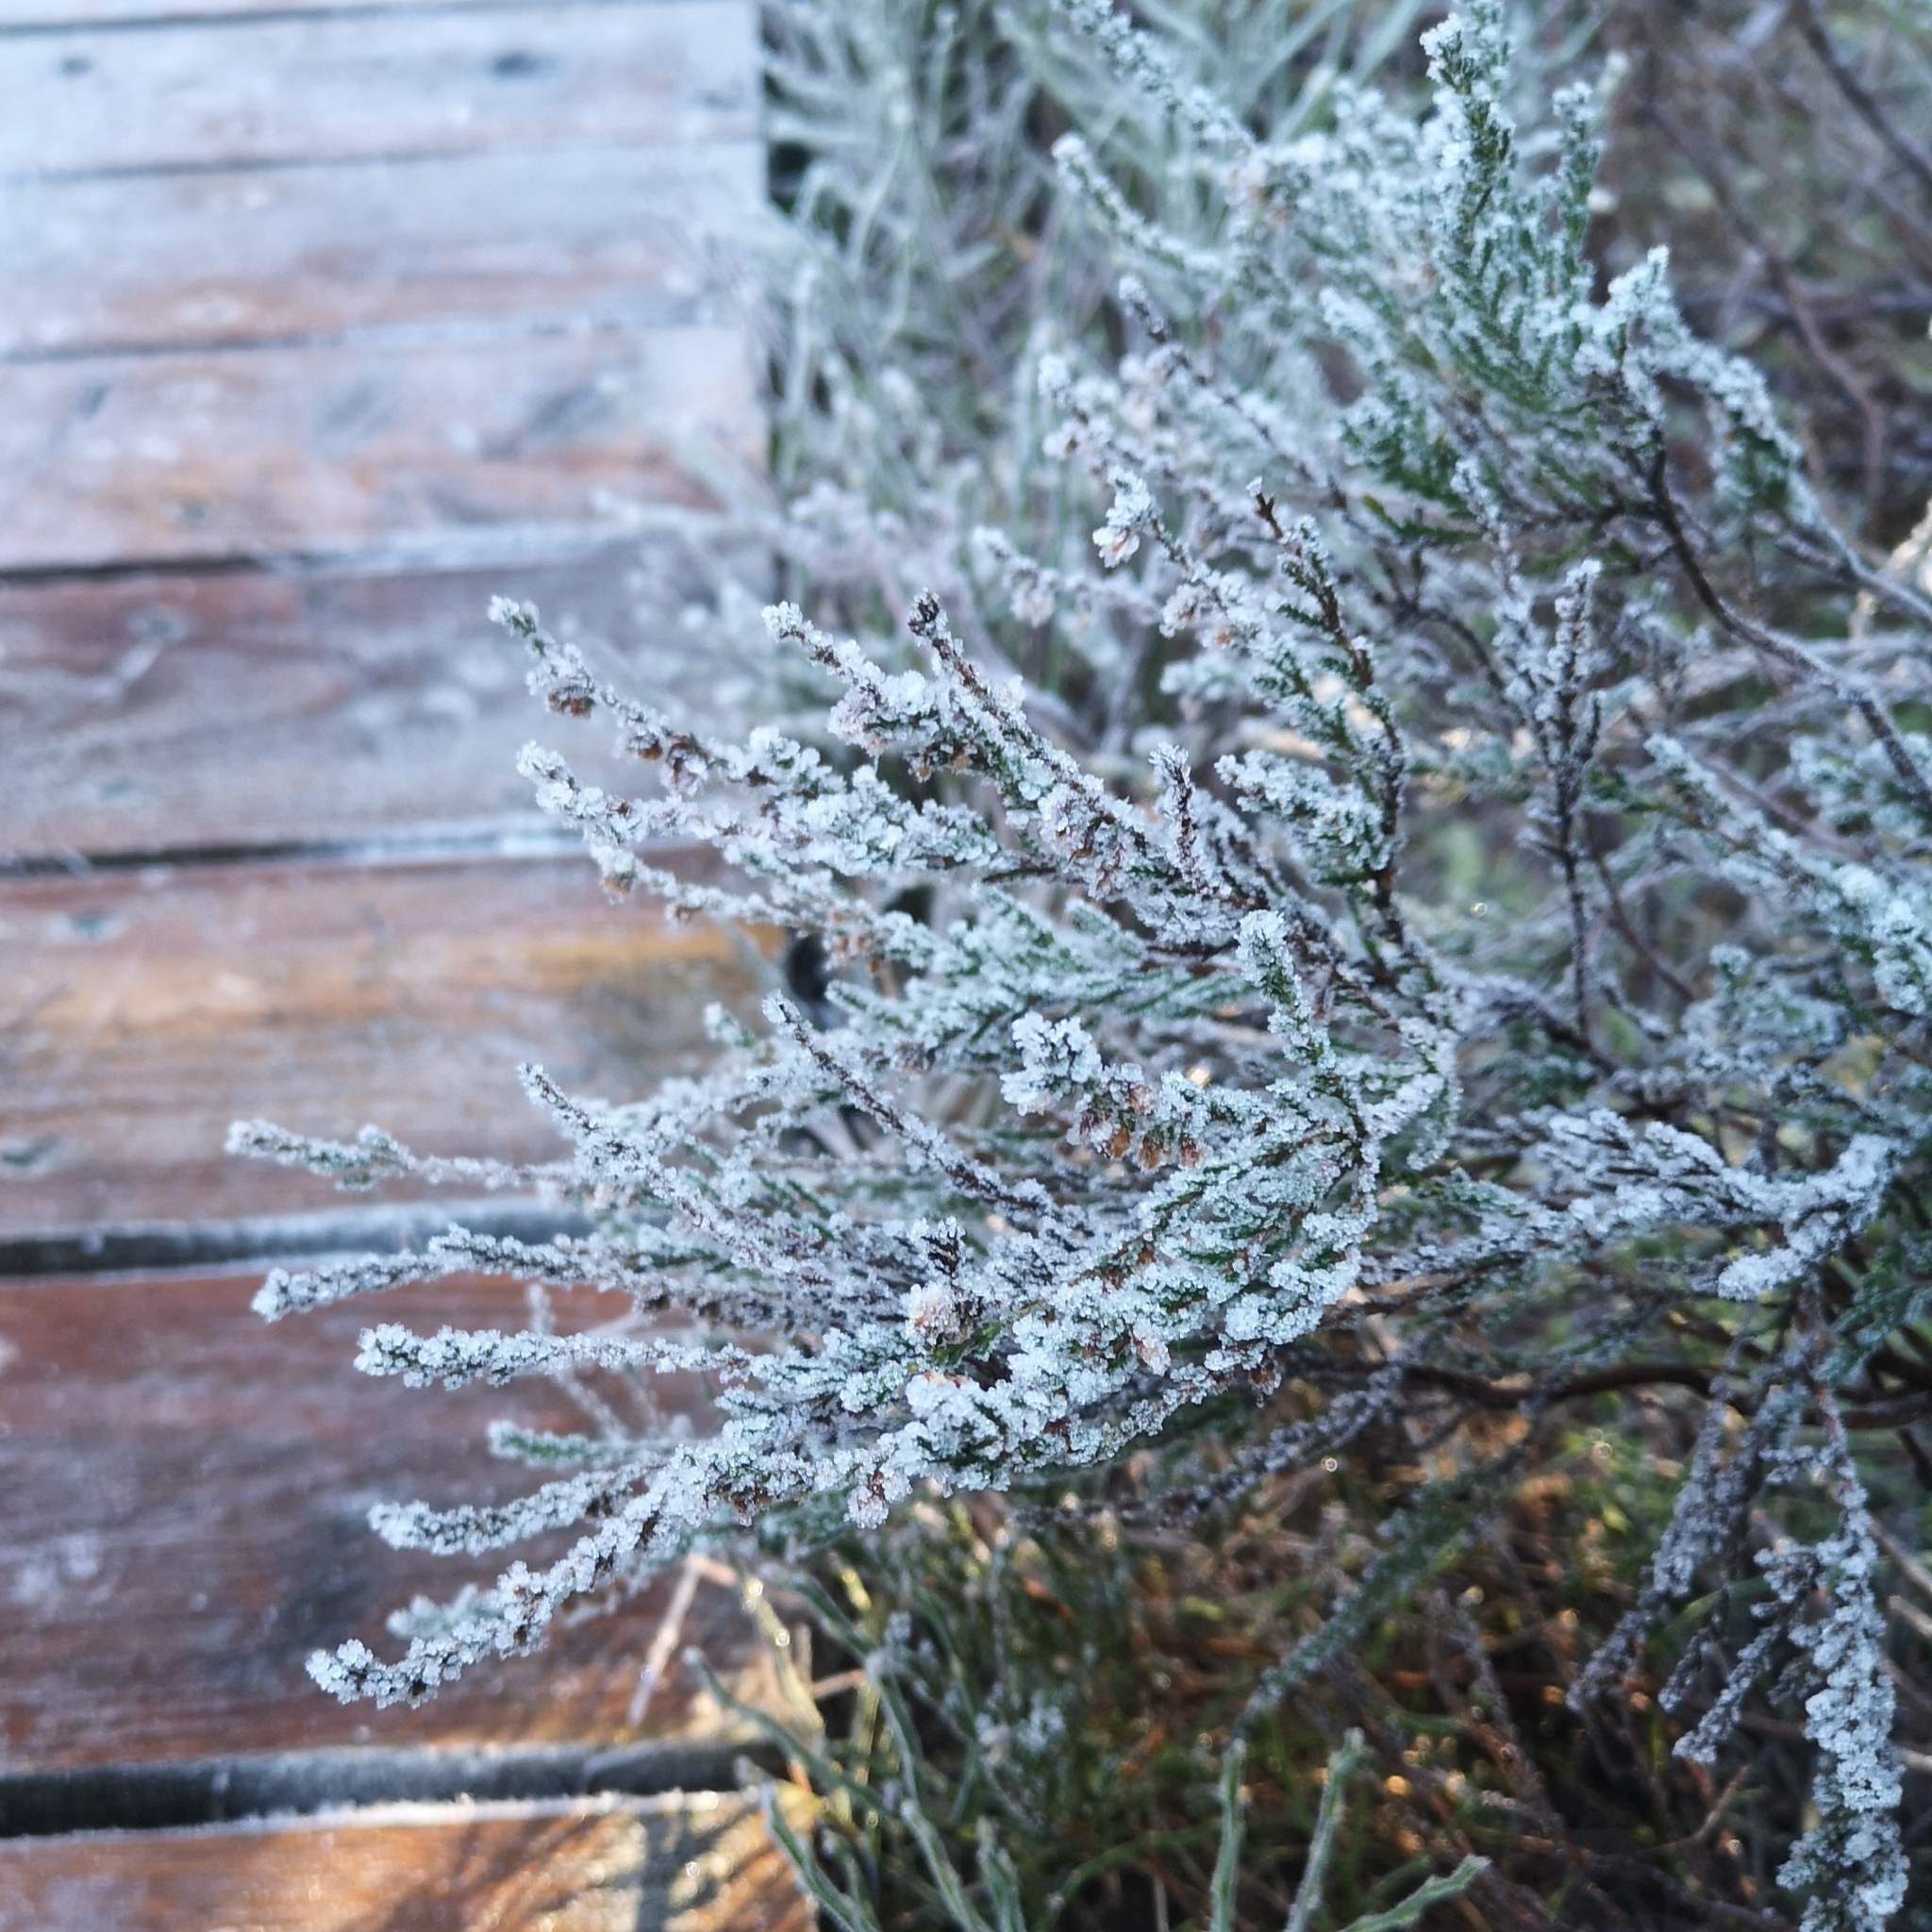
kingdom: Plantae
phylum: Tracheophyta
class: Magnoliopsida
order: Ericales
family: Ericaceae
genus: Calluna
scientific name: Calluna vulgaris
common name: Heather
